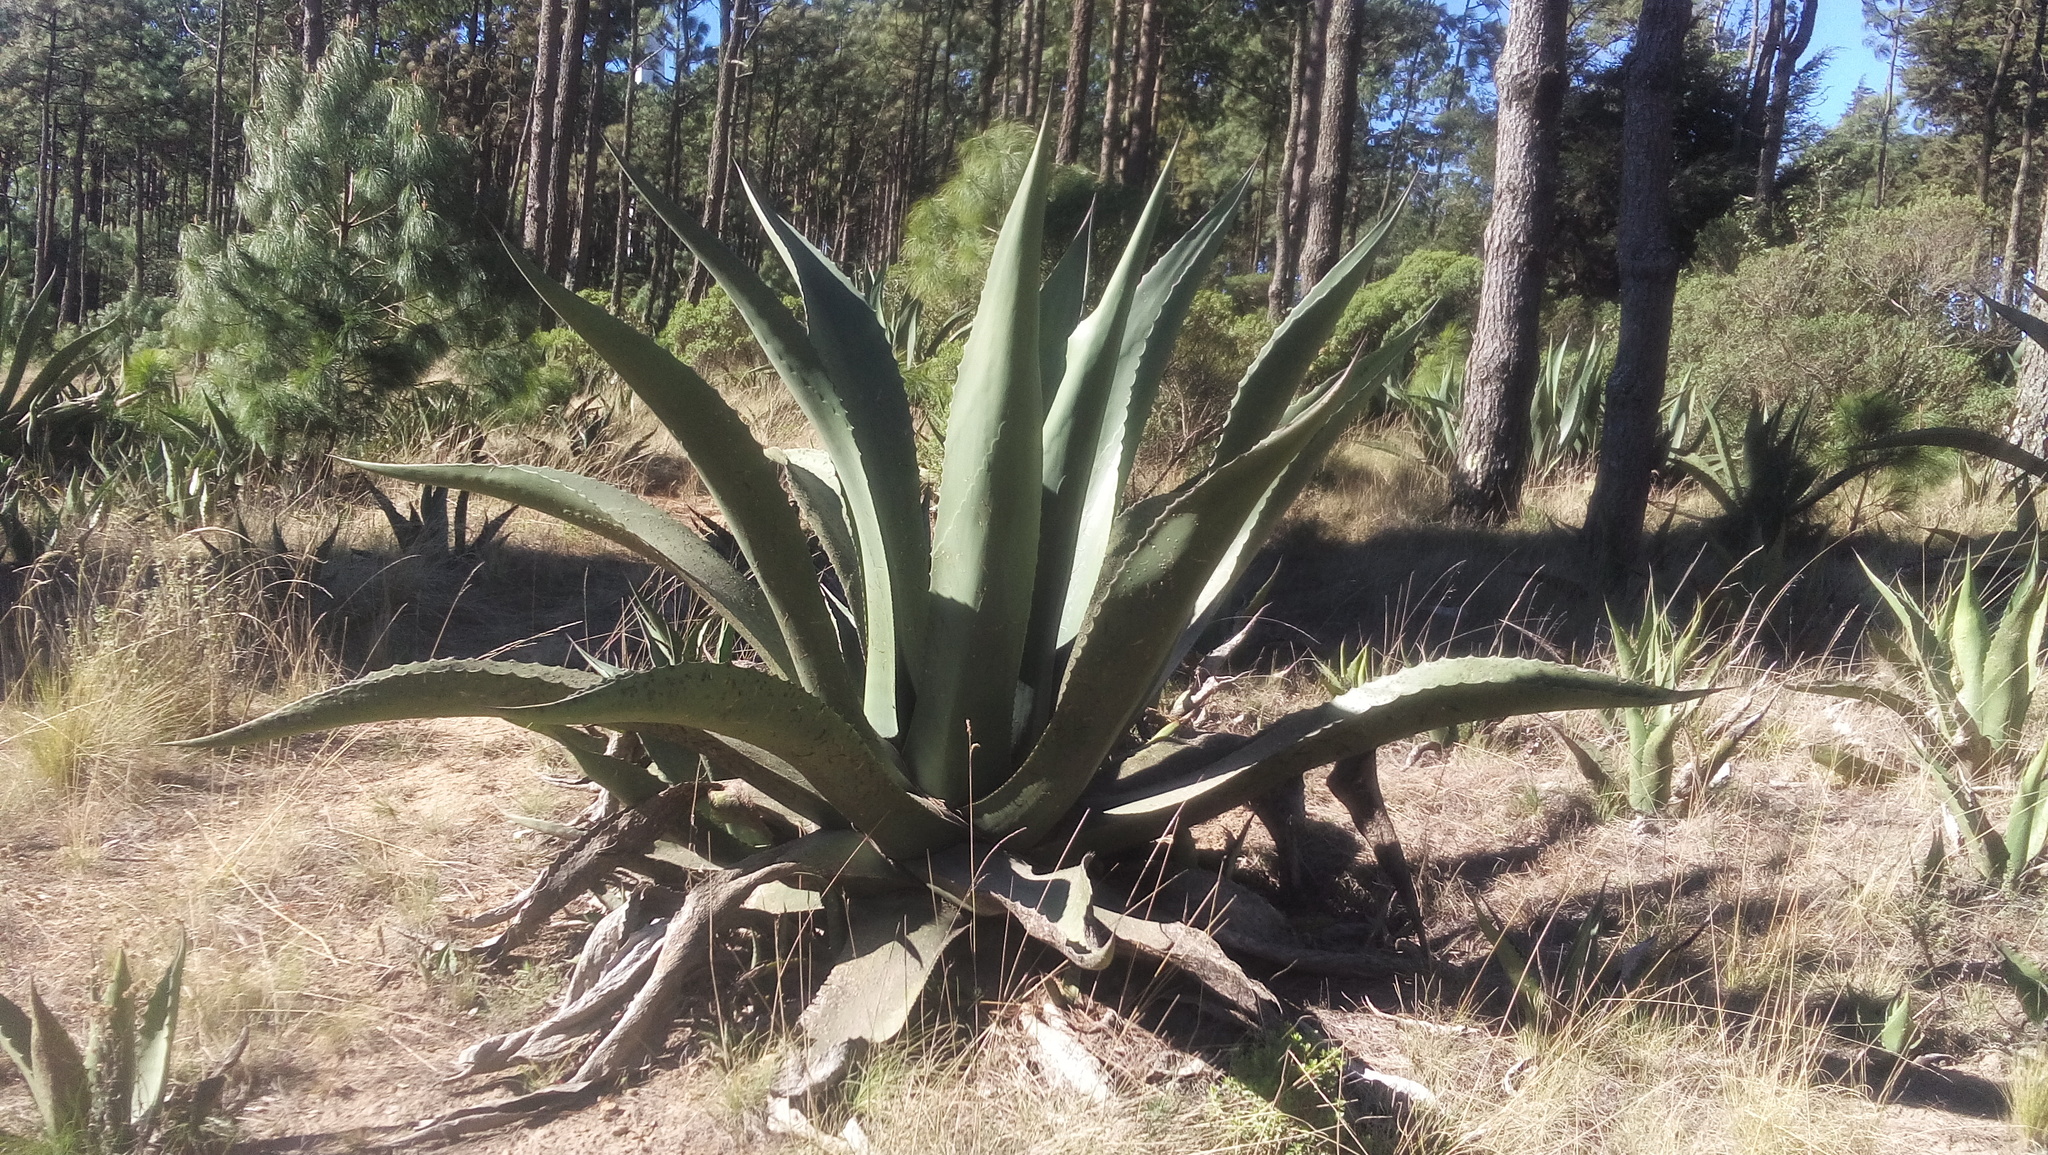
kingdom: Plantae
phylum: Tracheophyta
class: Liliopsida
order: Asparagales
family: Asparagaceae
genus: Agave
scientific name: Agave salmiana
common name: Pulque agave
